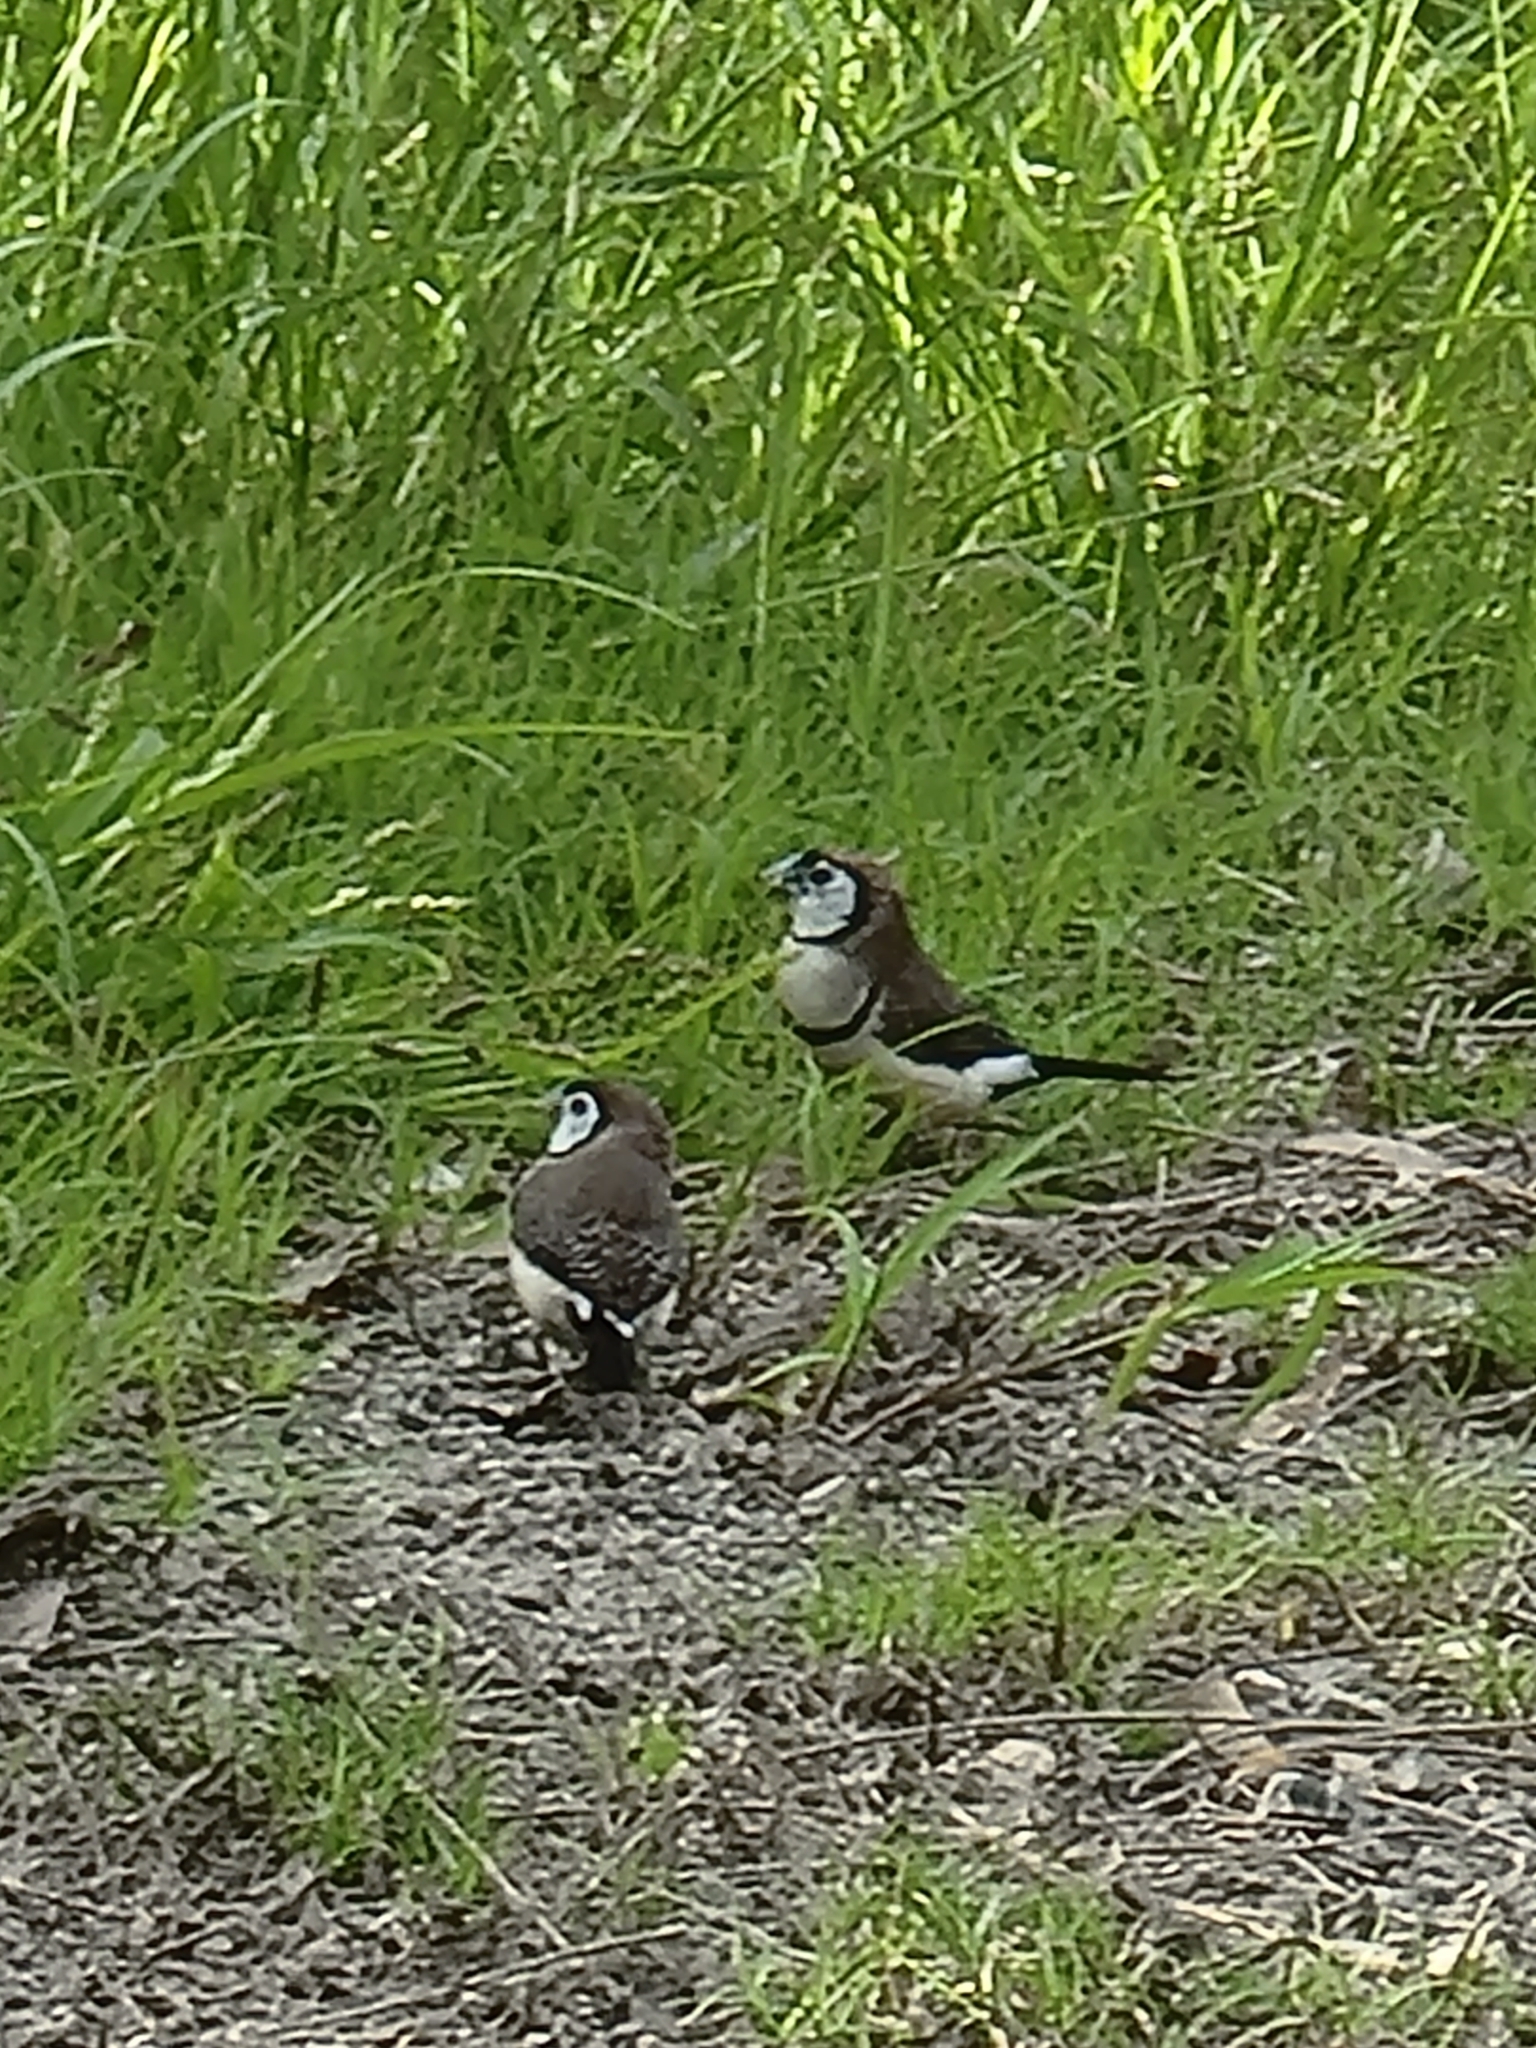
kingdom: Animalia
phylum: Chordata
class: Aves
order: Passeriformes
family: Estrildidae
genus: Taeniopygia
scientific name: Taeniopygia bichenovii
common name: Double-barred finch
